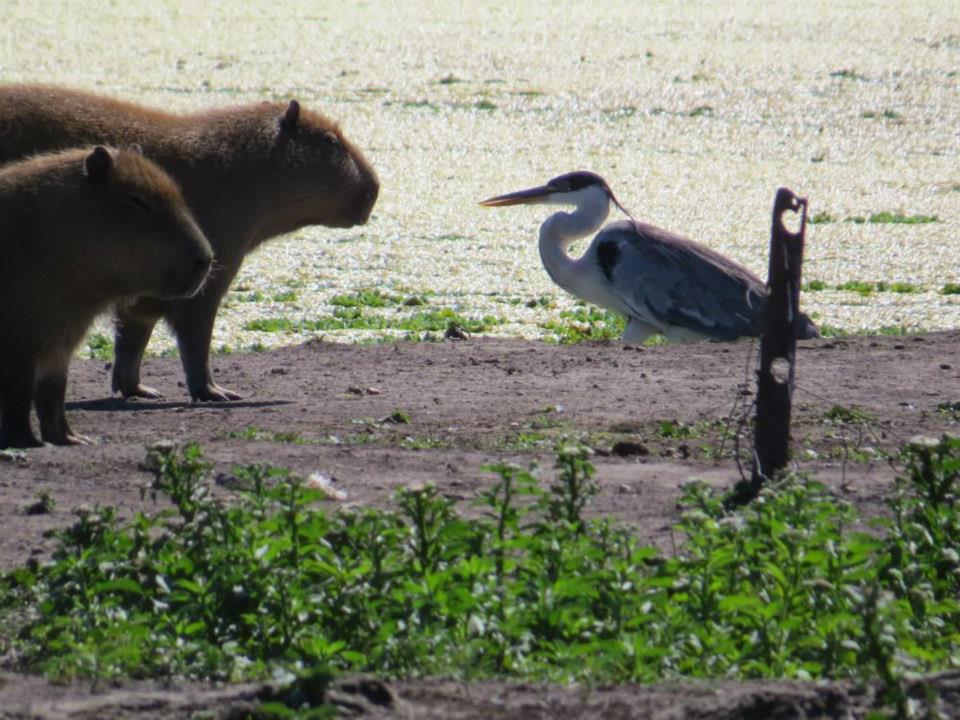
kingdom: Animalia
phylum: Chordata
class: Aves
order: Pelecaniformes
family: Ardeidae
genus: Ardea
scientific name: Ardea cocoi
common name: Cocoi heron
